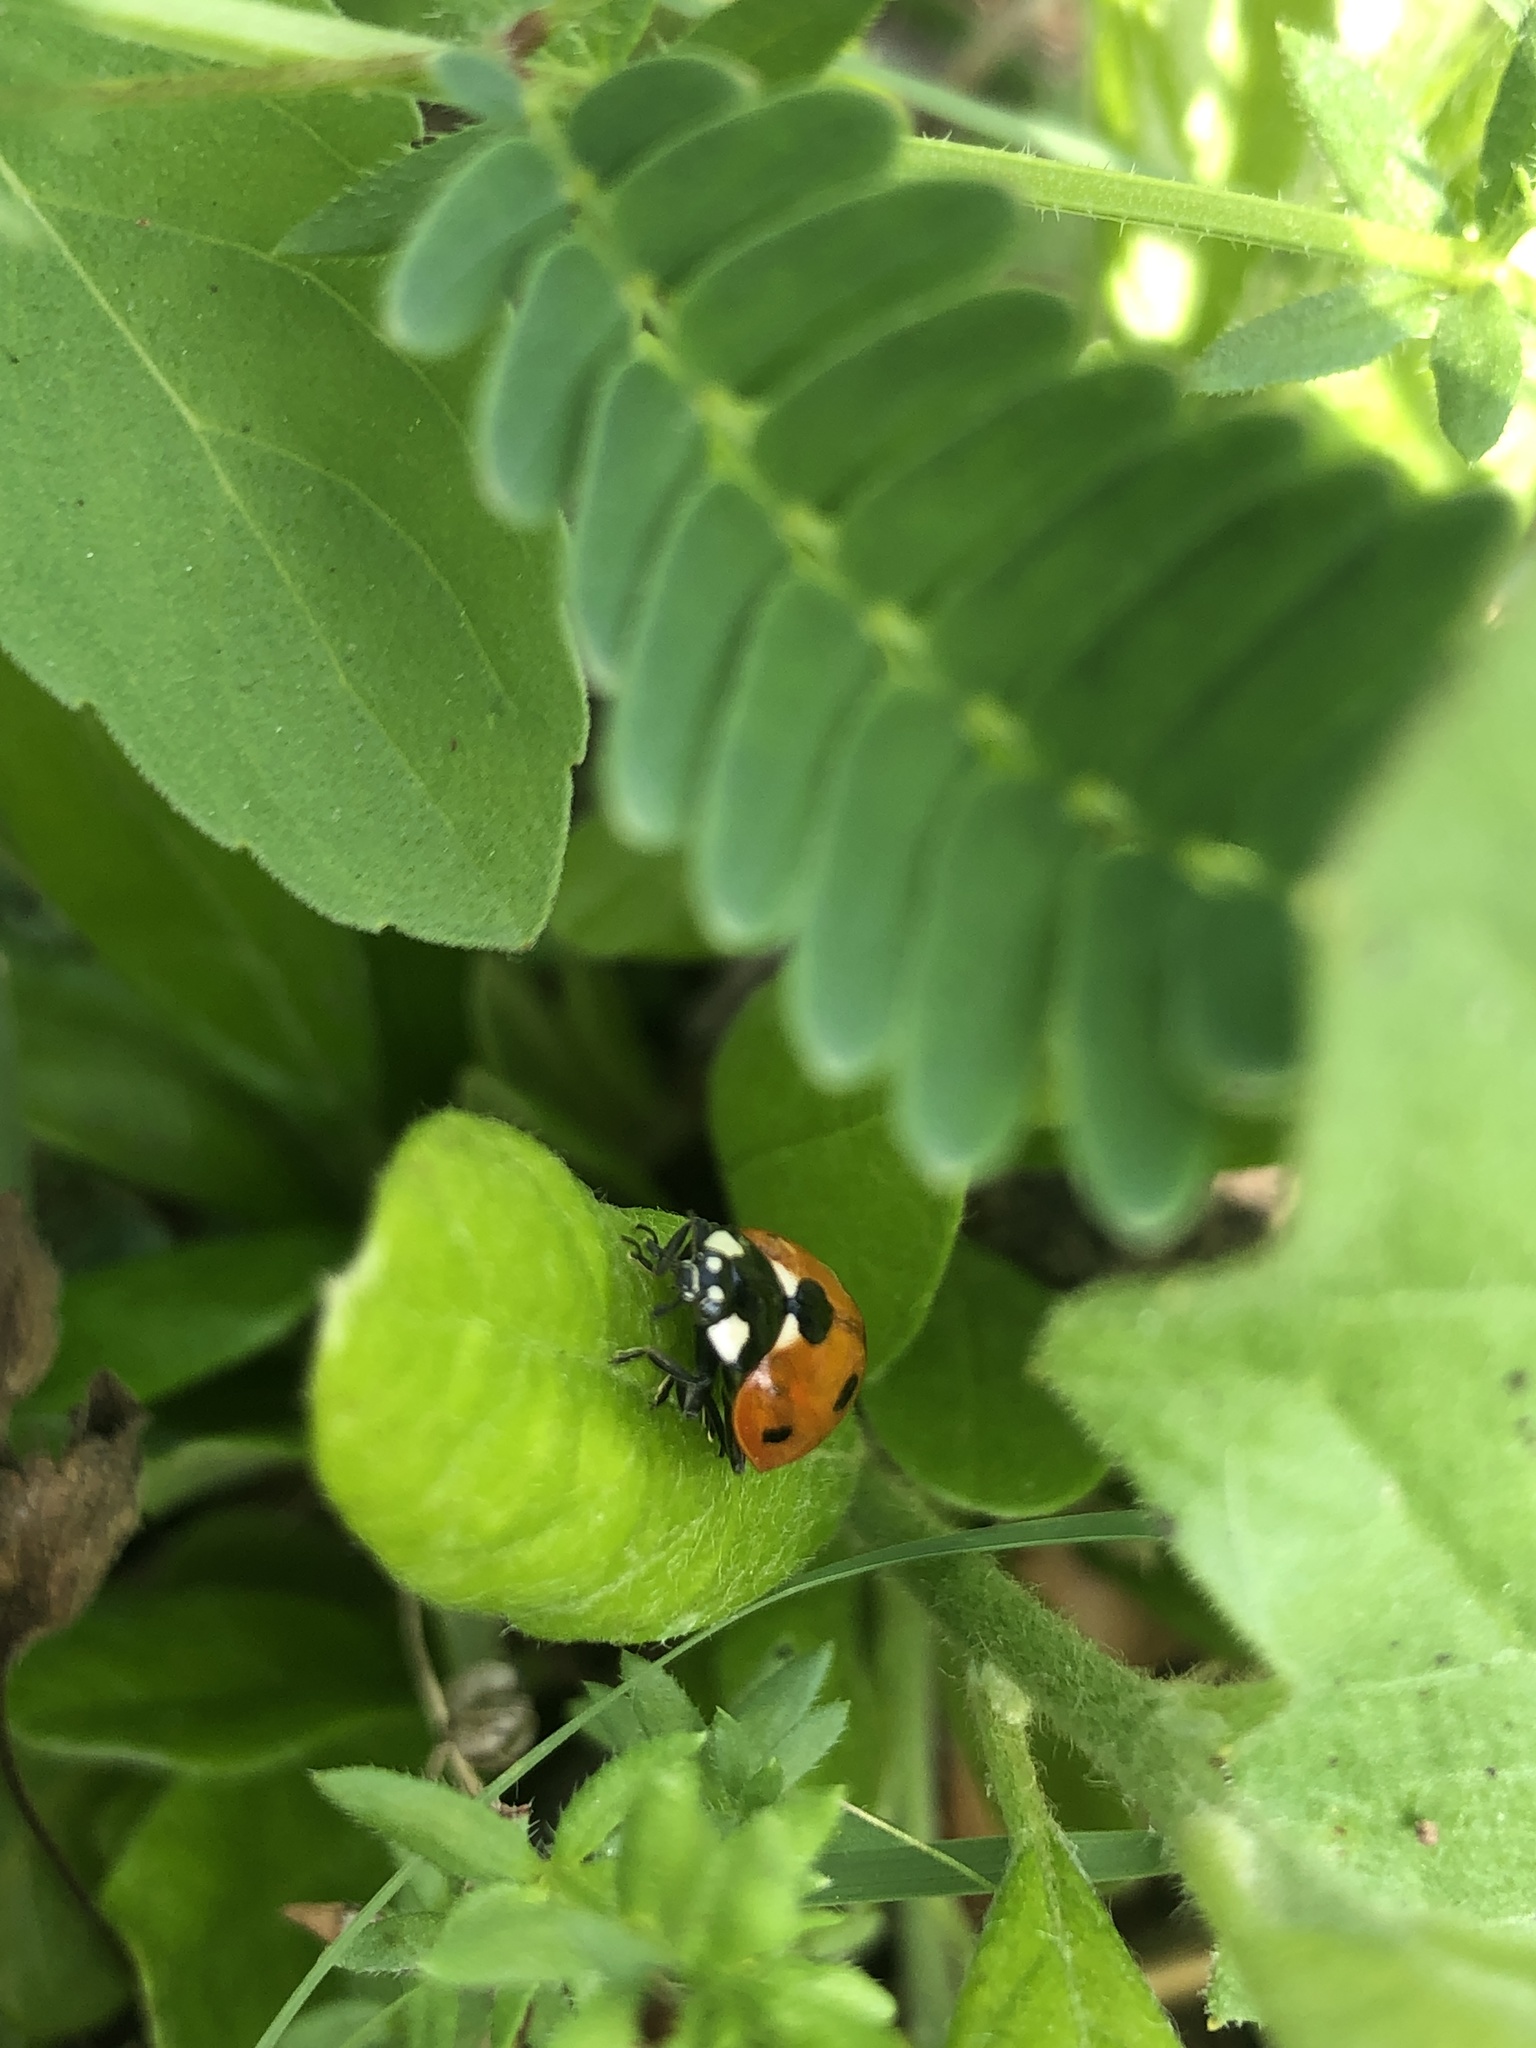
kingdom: Animalia
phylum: Arthropoda
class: Insecta
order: Coleoptera
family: Coccinellidae
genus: Coccinella
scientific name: Coccinella septempunctata
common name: Sevenspotted lady beetle
